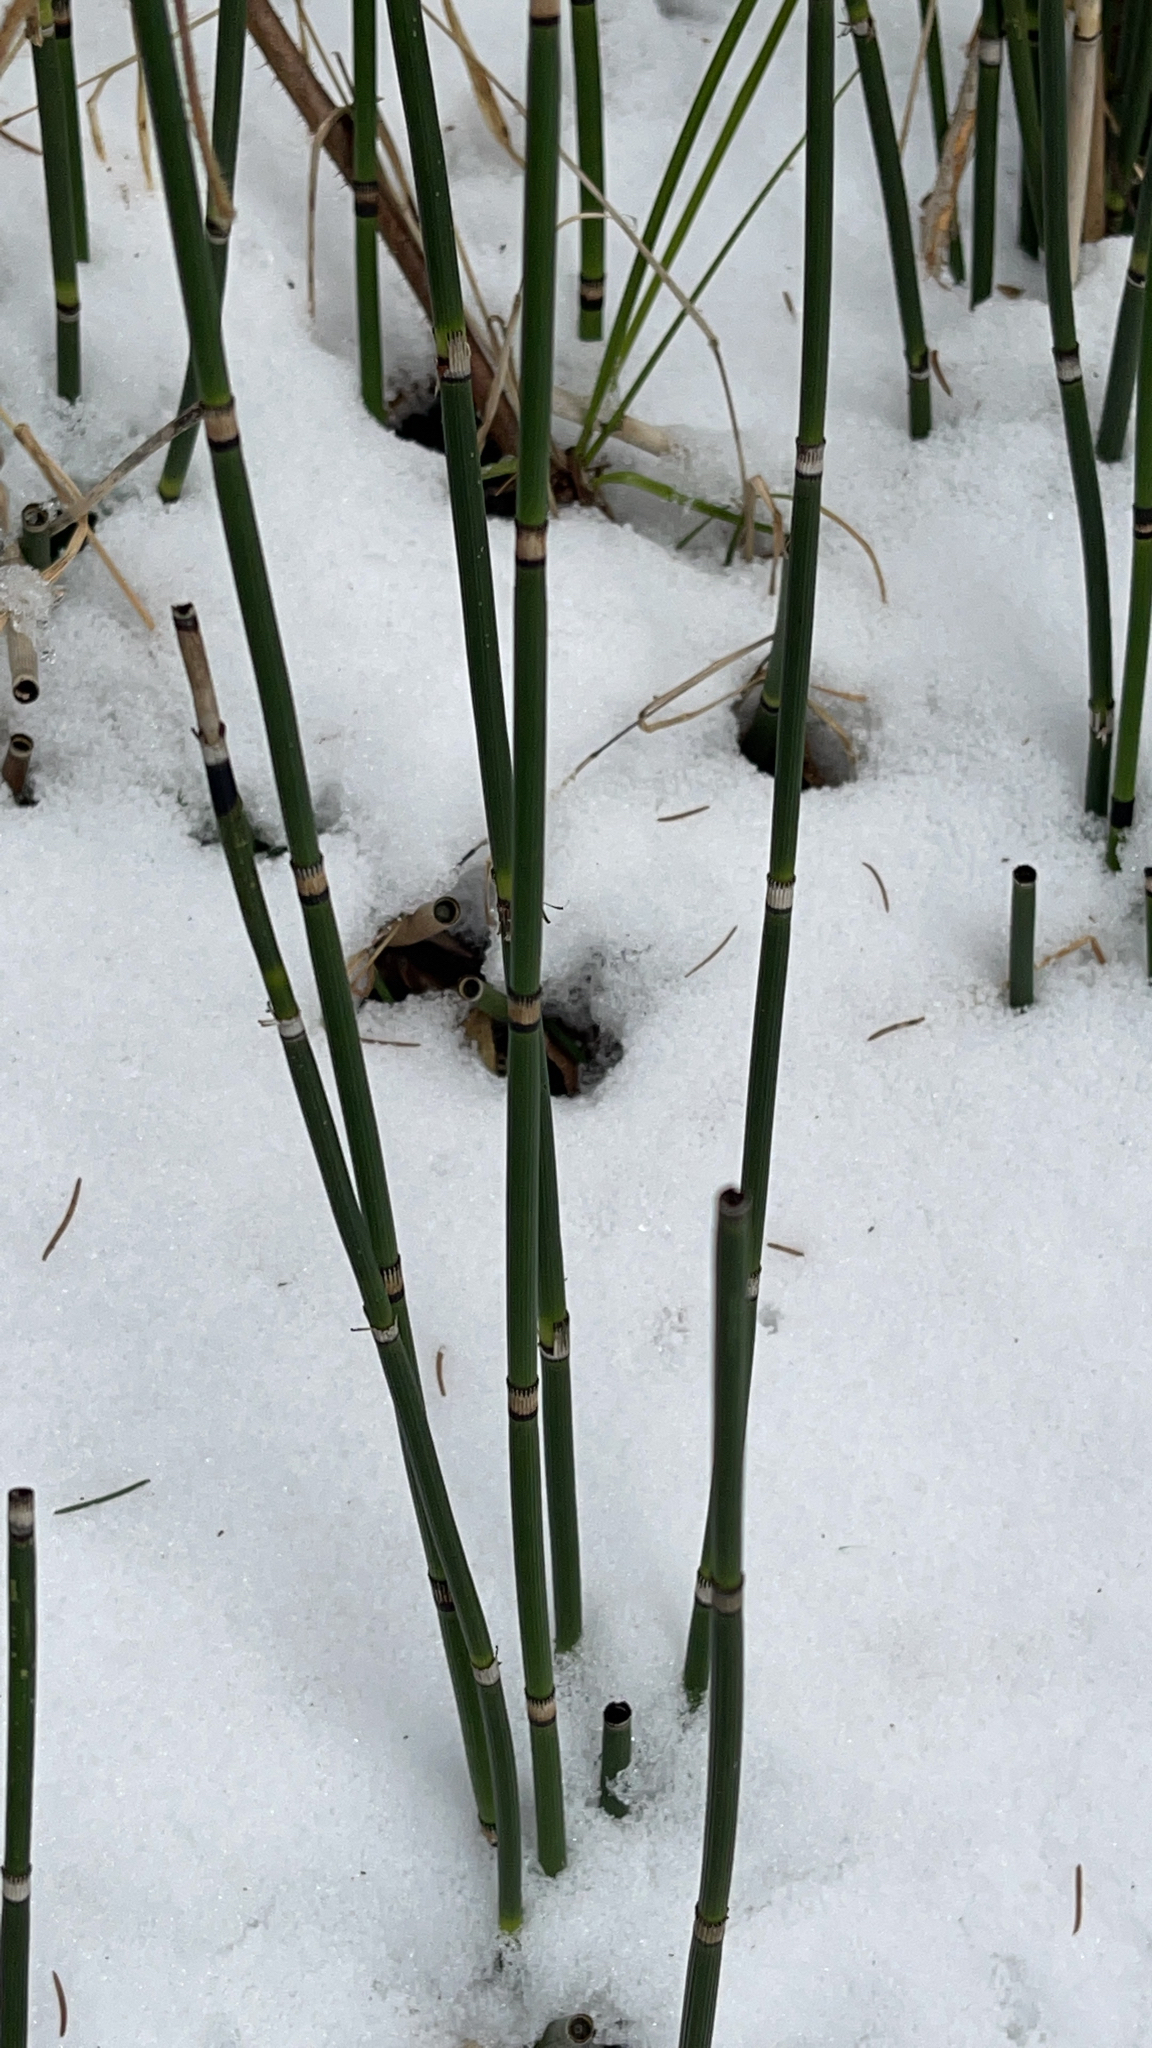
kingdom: Plantae
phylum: Tracheophyta
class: Polypodiopsida
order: Equisetales
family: Equisetaceae
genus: Equisetum
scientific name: Equisetum hyemale
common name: Rough horsetail
